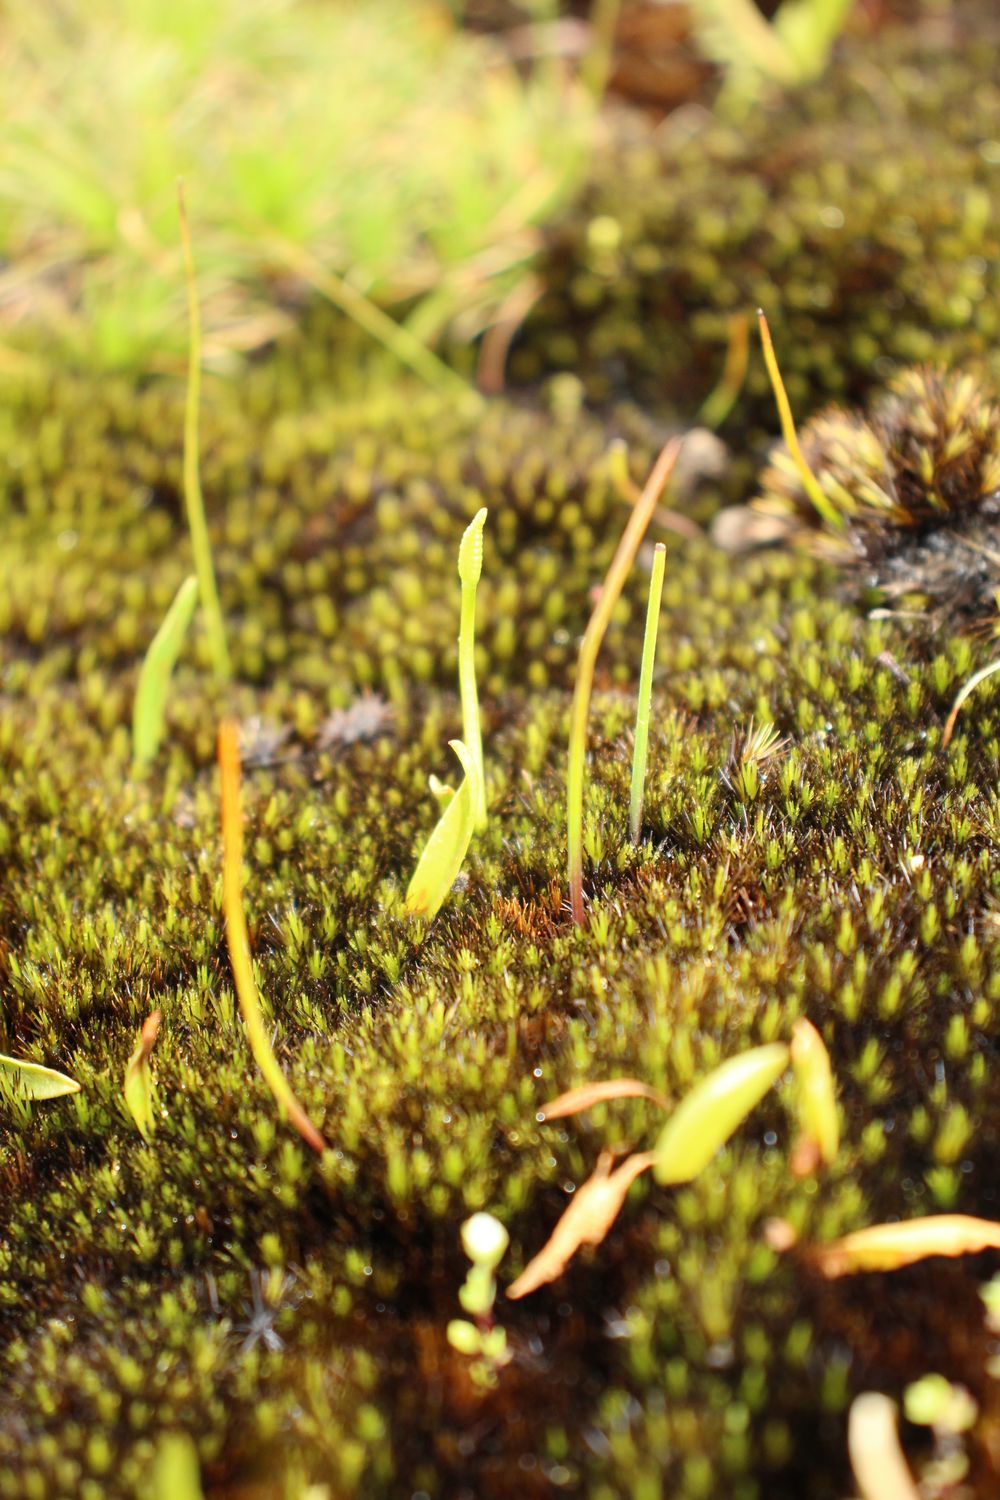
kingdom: Plantae
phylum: Tracheophyta
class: Polypodiopsida
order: Ophioglossales
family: Ophioglossaceae
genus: Ophioglossum
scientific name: Ophioglossum coriaceum
